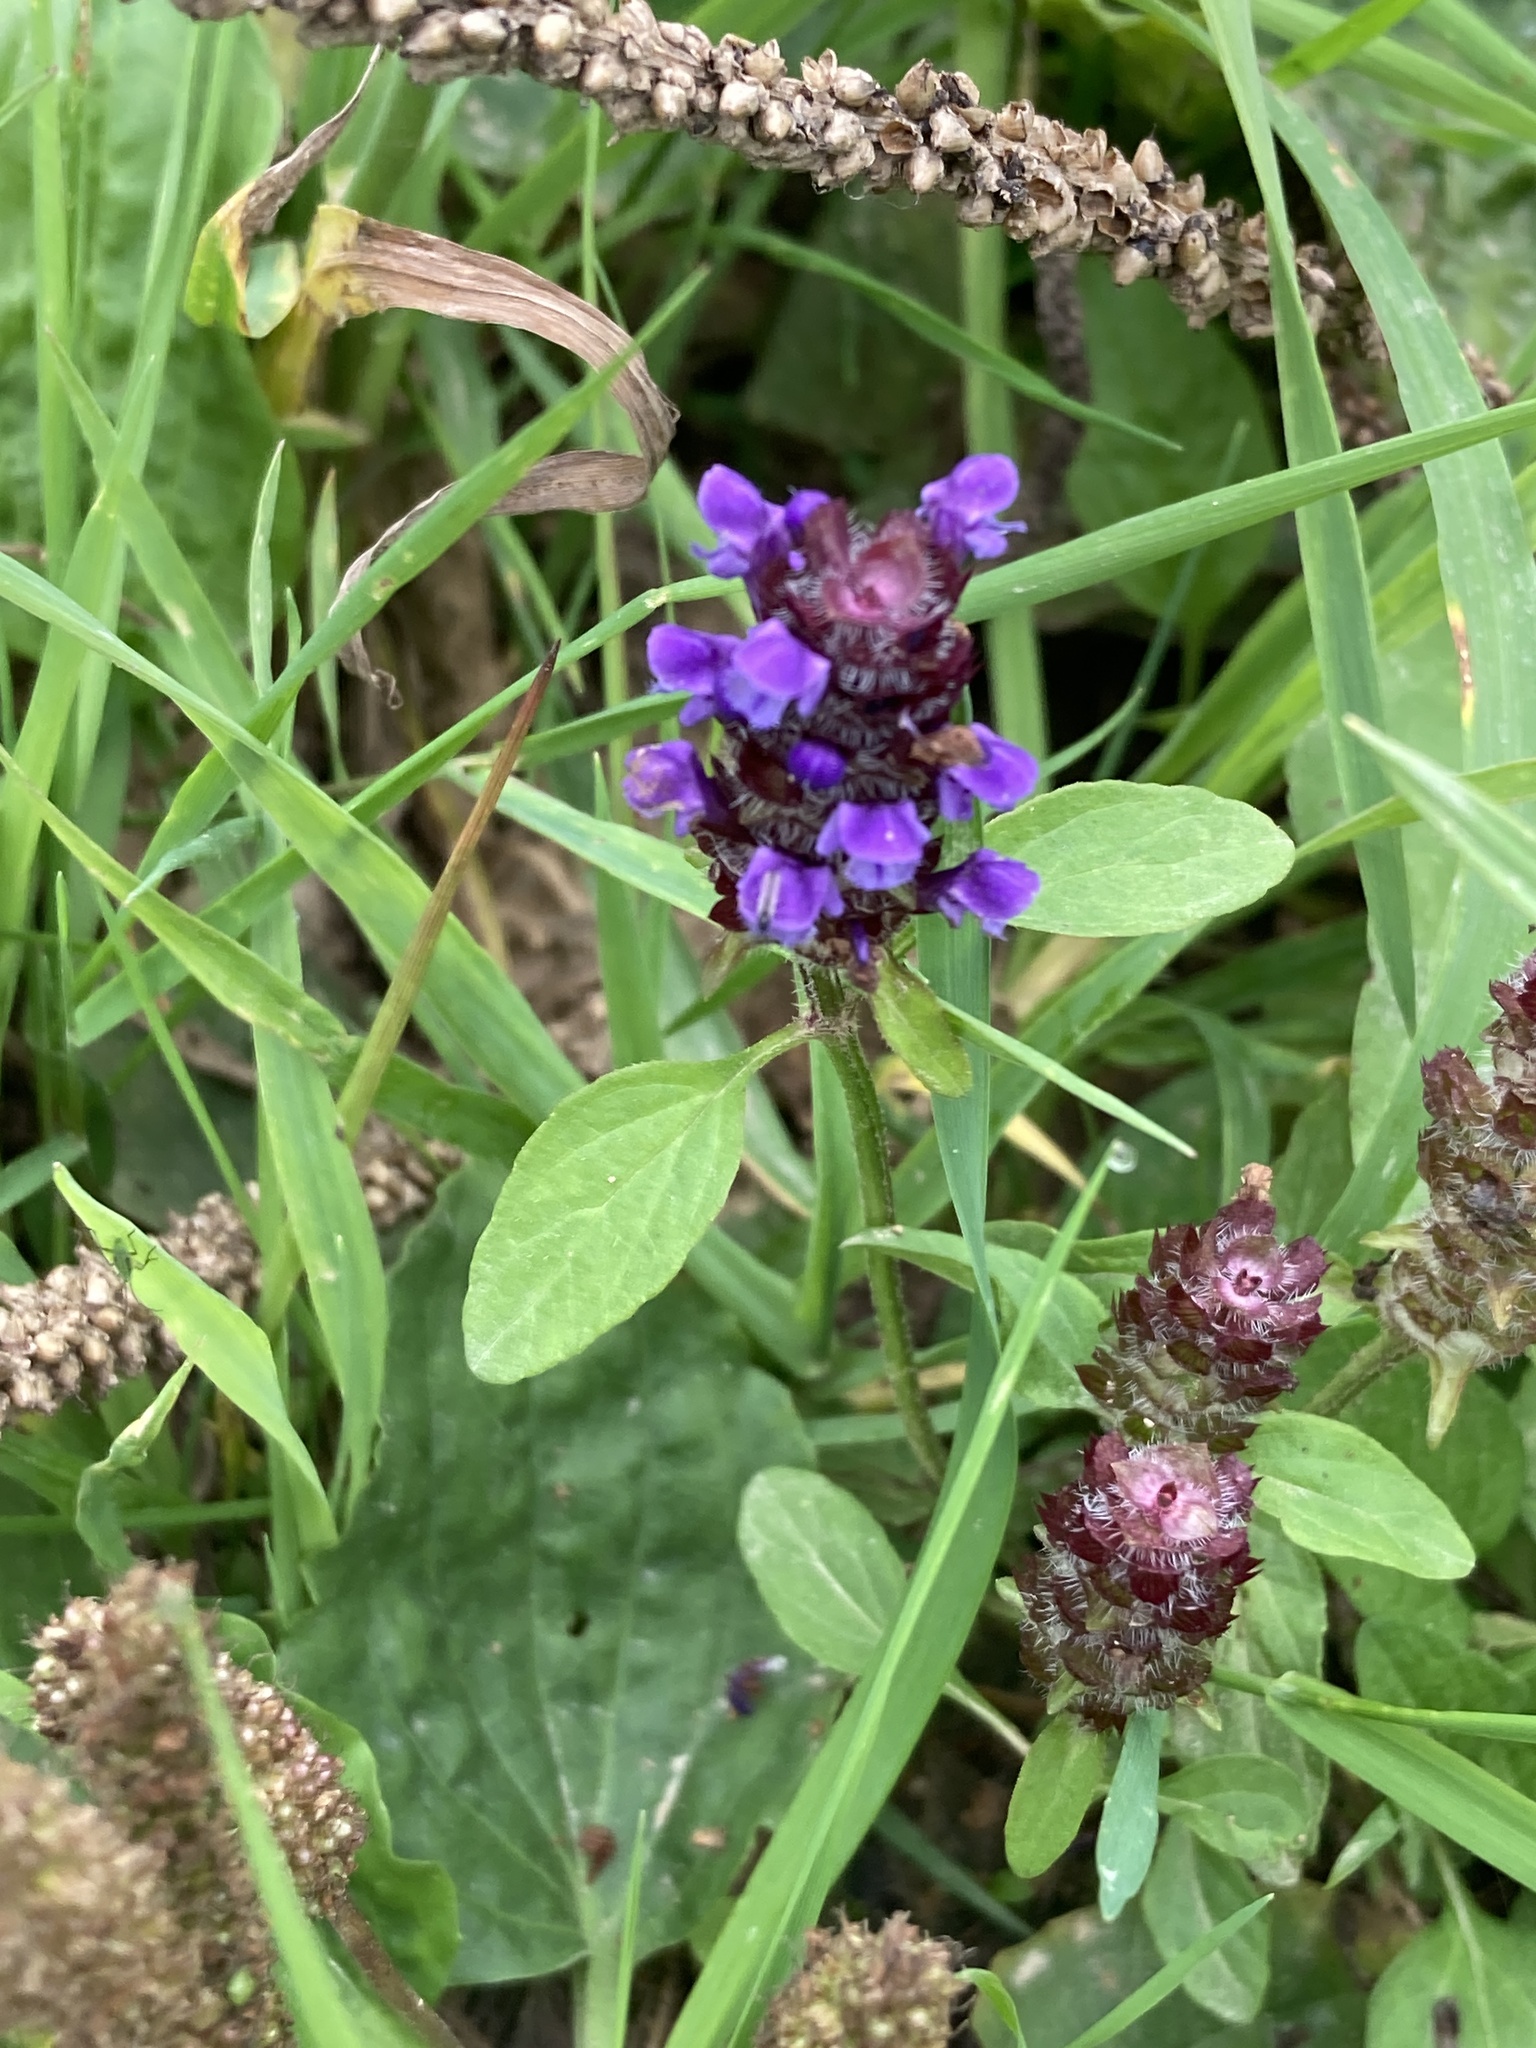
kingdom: Plantae
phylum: Tracheophyta
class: Magnoliopsida
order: Lamiales
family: Lamiaceae
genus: Prunella
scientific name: Prunella vulgaris
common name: Heal-all
